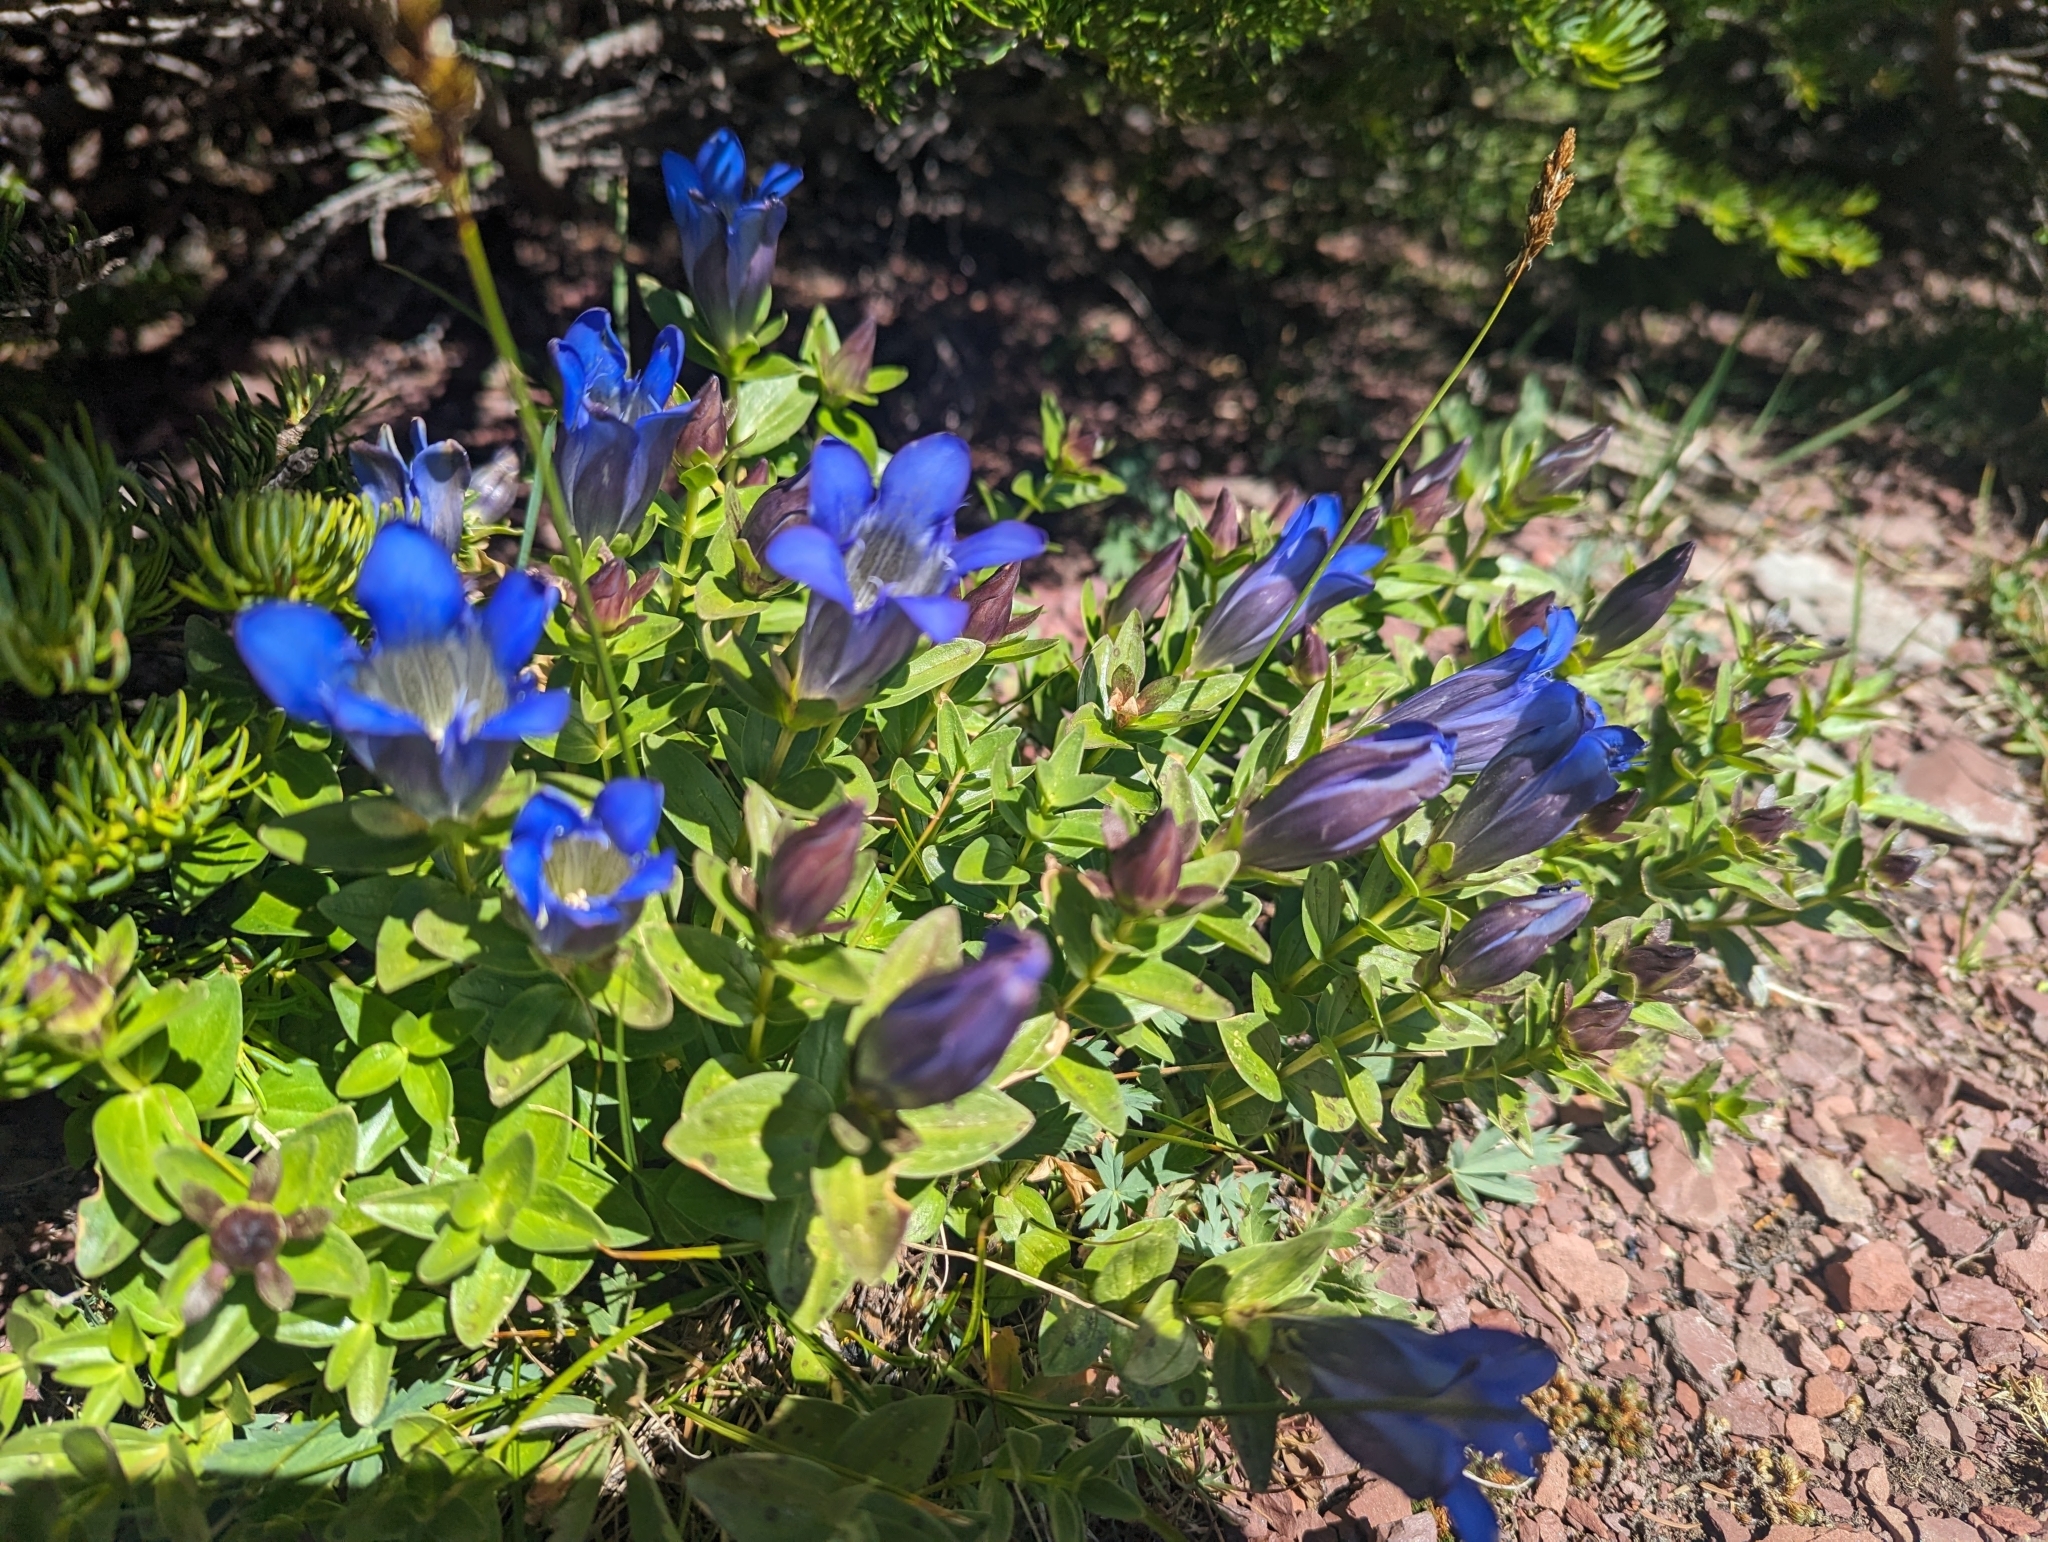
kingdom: Plantae
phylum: Tracheophyta
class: Magnoliopsida
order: Gentianales
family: Gentianaceae
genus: Gentiana
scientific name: Gentiana calycosa
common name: Rainier pleated gentian
